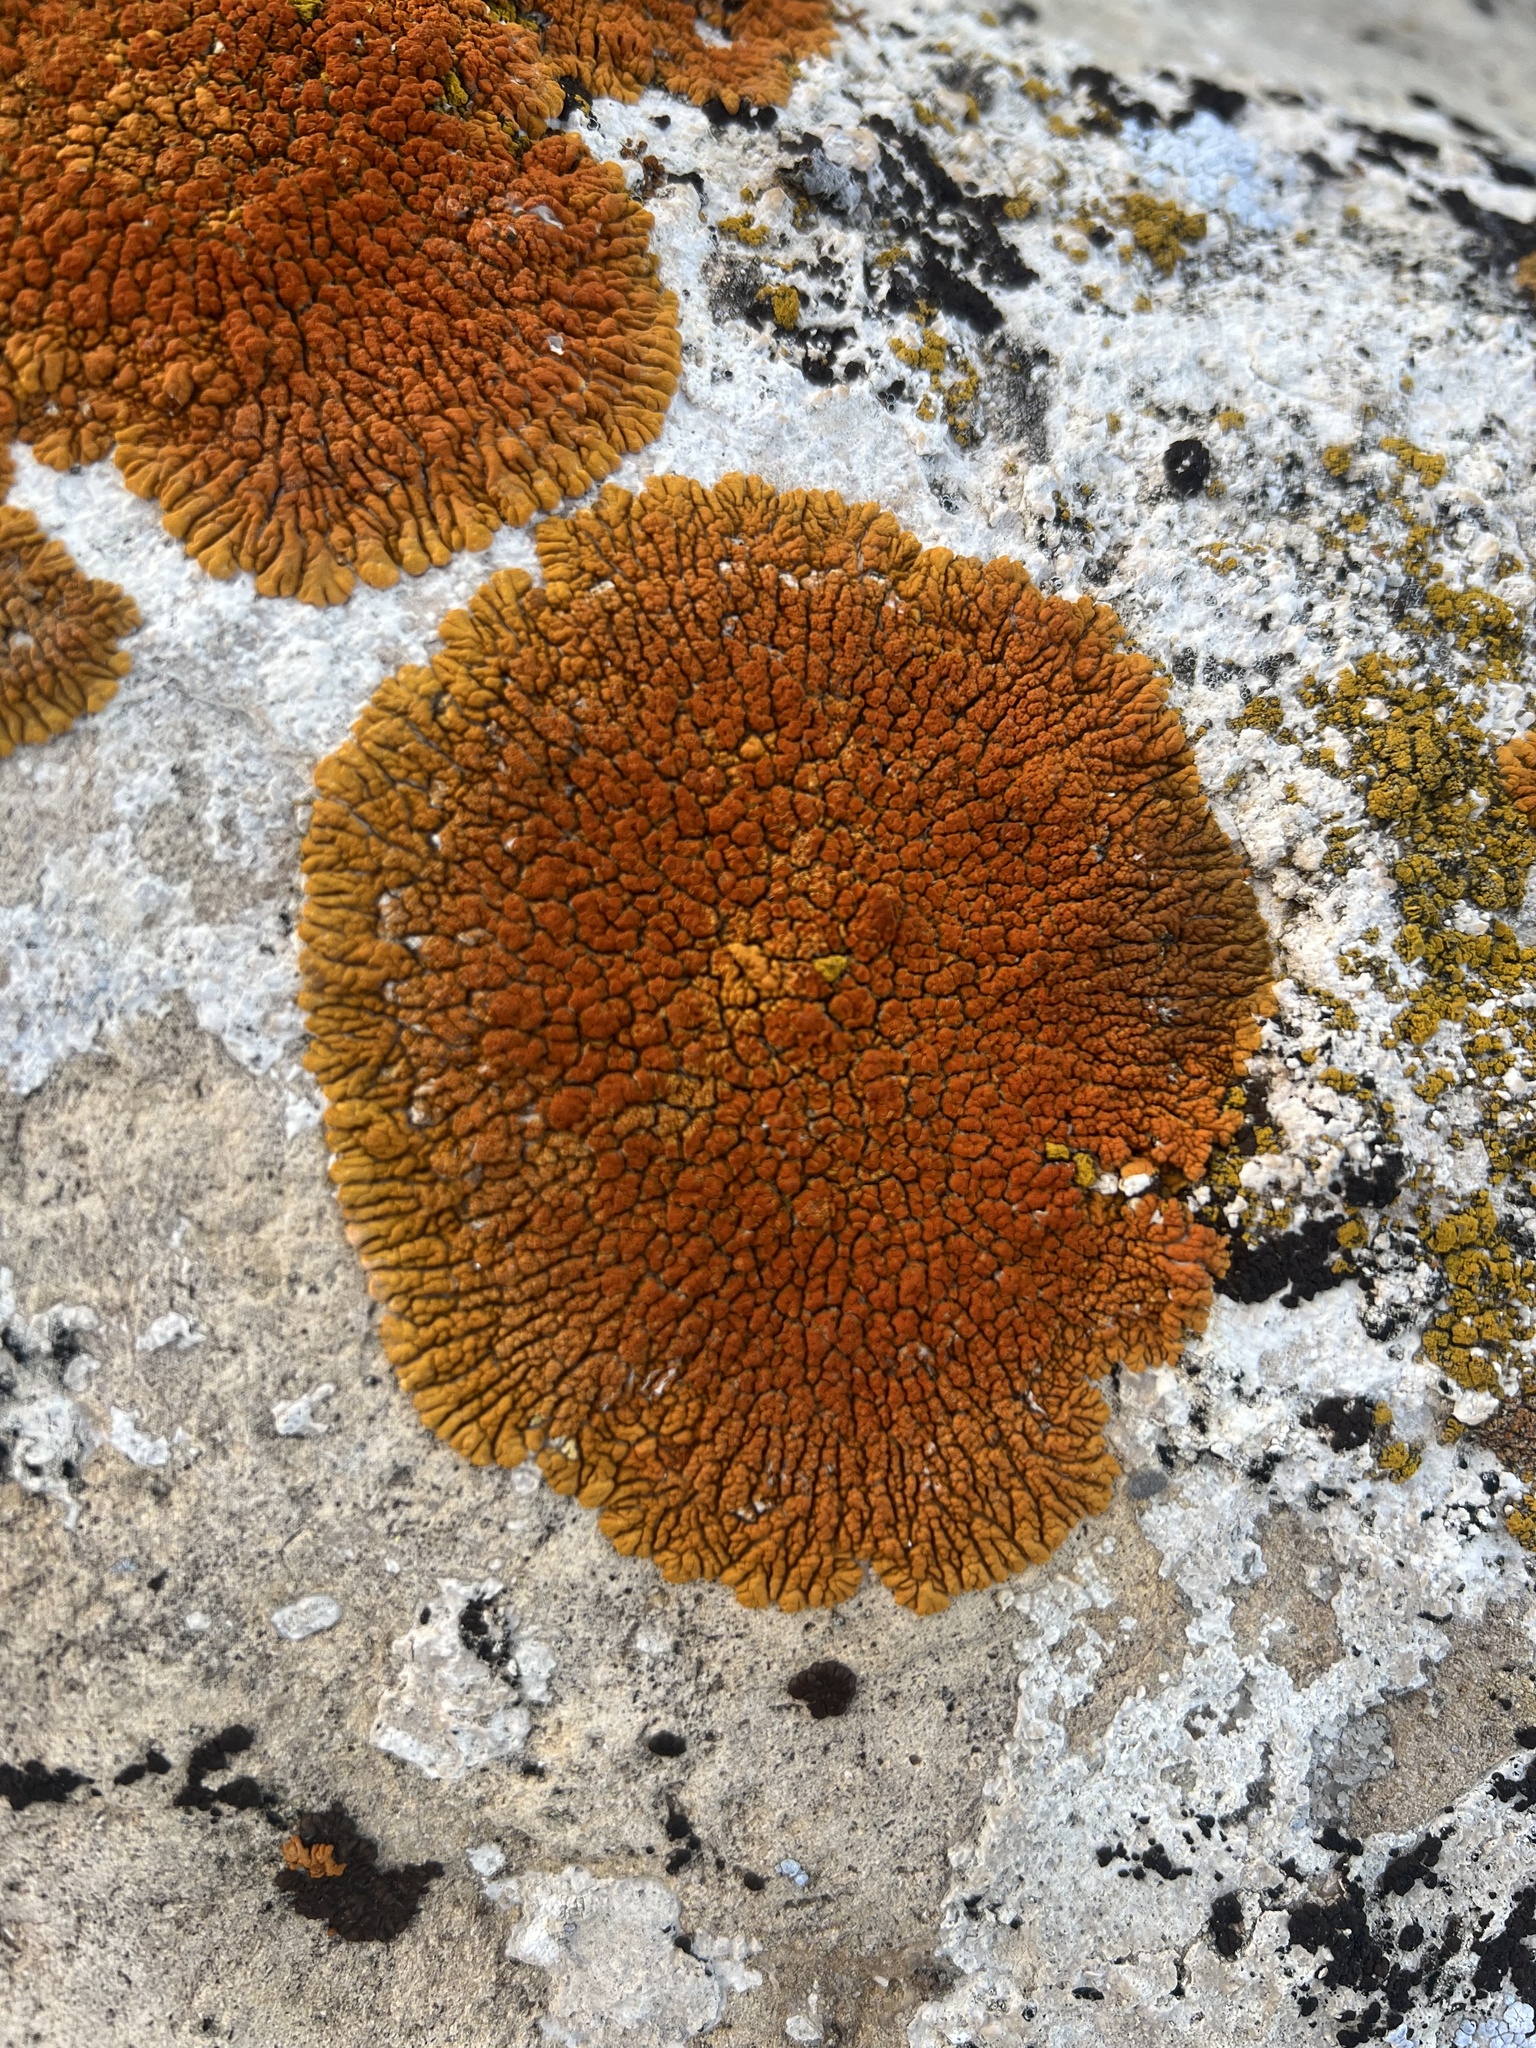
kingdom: Fungi
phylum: Ascomycota
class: Lecanoromycetes
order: Teloschistales
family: Teloschistaceae
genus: Golubkovia
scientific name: Golubkovia trachyphylla
